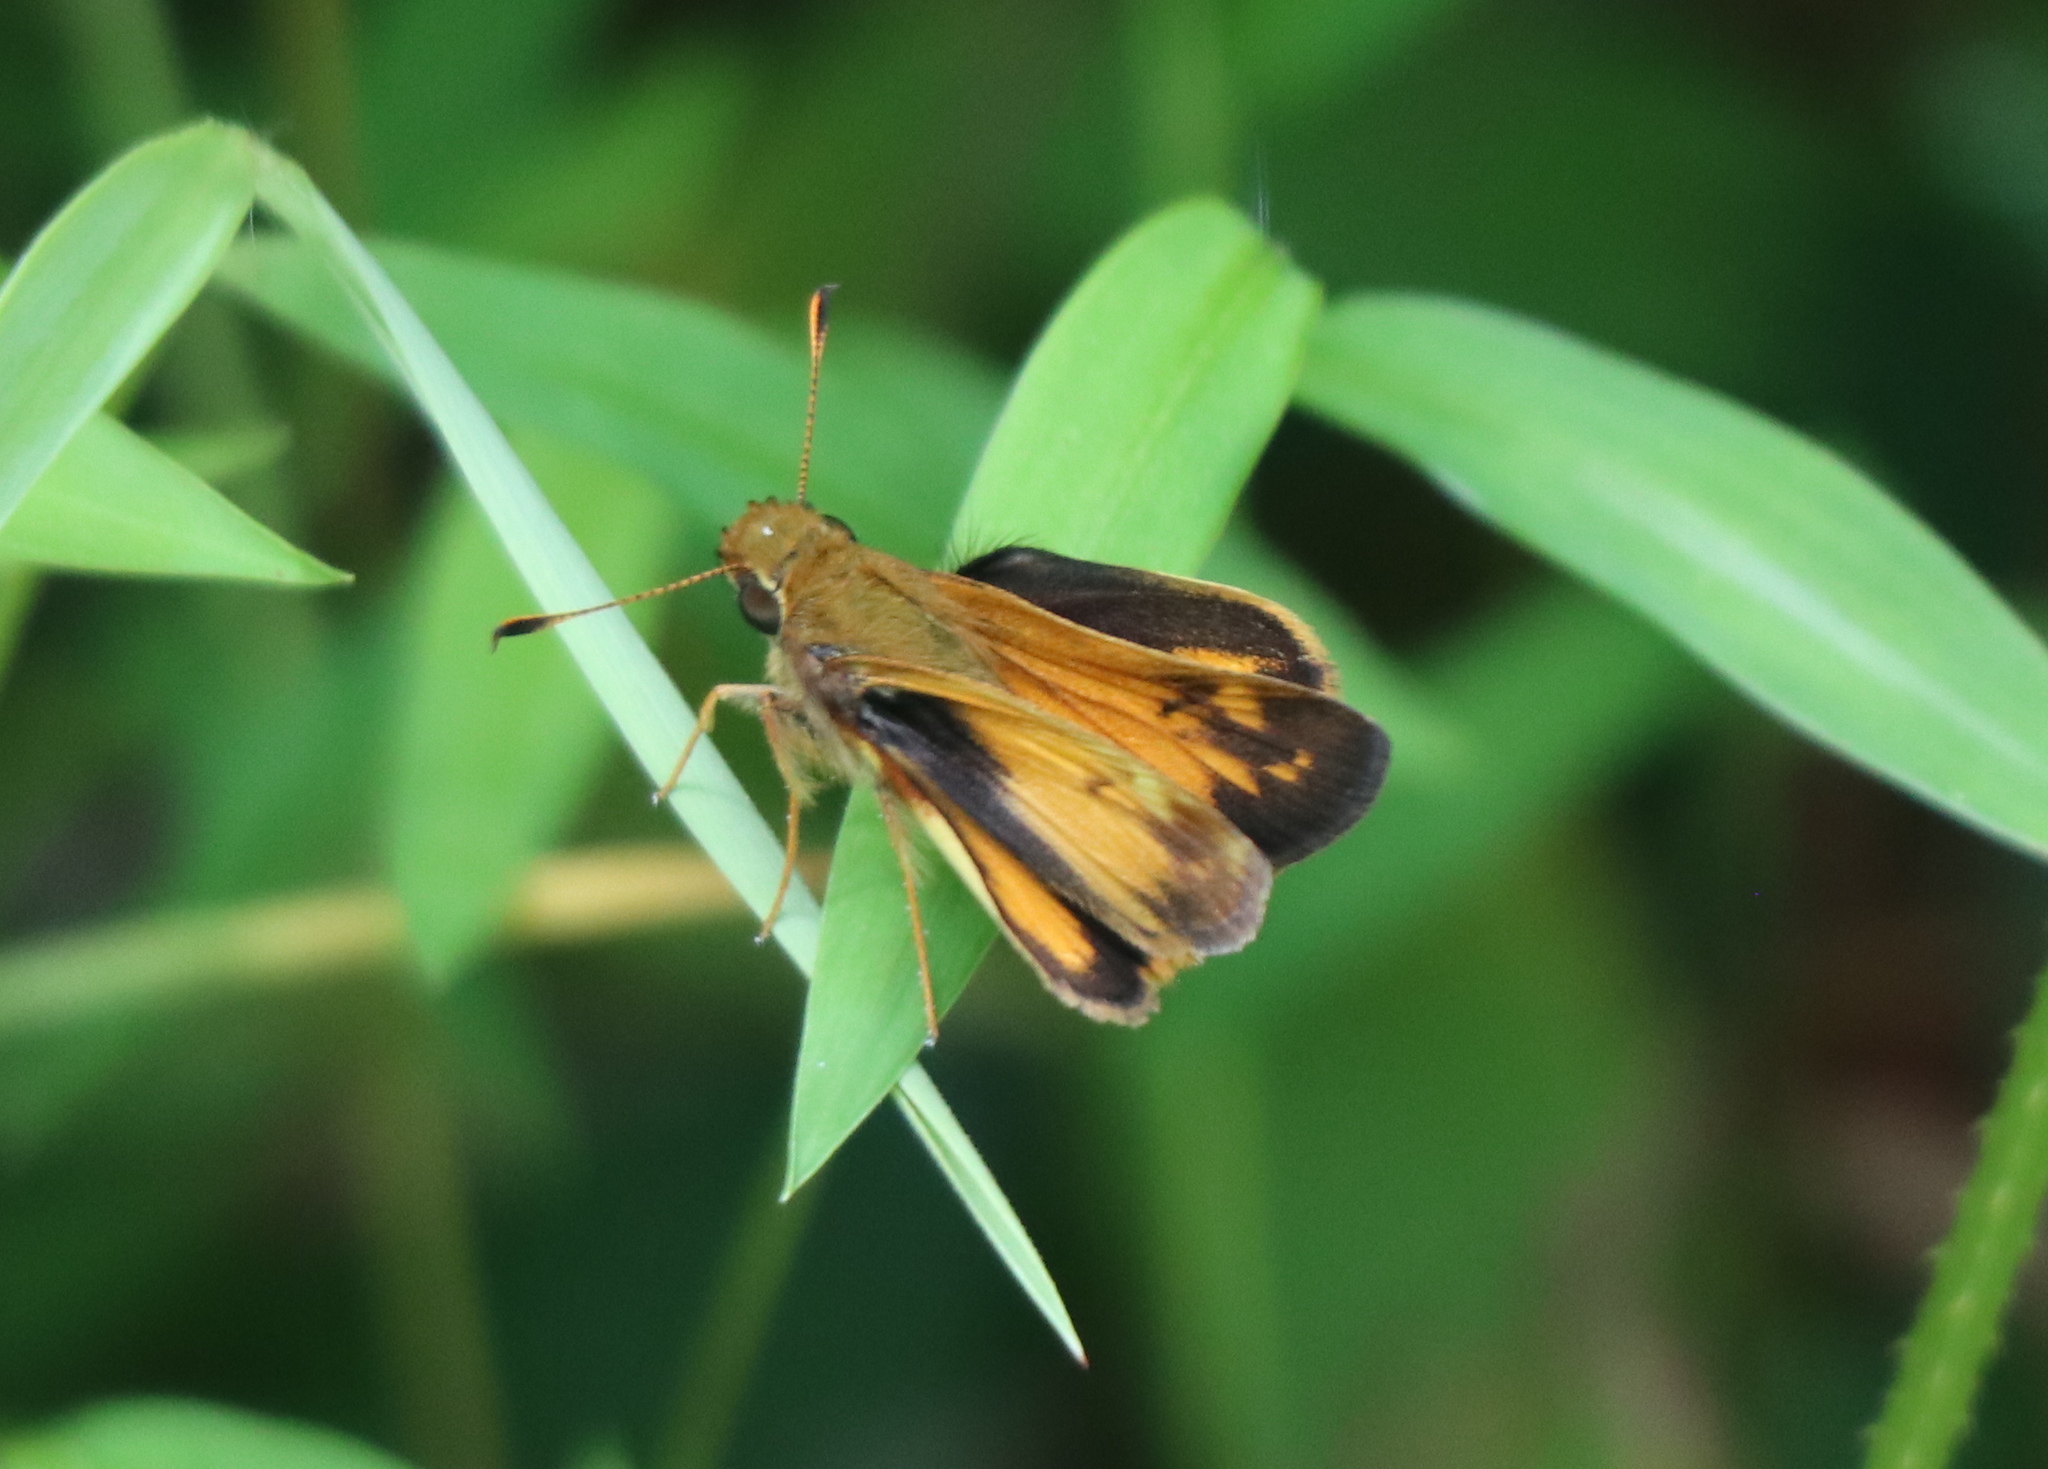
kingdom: Animalia
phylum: Arthropoda
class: Insecta
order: Lepidoptera
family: Hesperiidae
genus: Lon
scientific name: Lon zabulon
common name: Zabulon skipper
